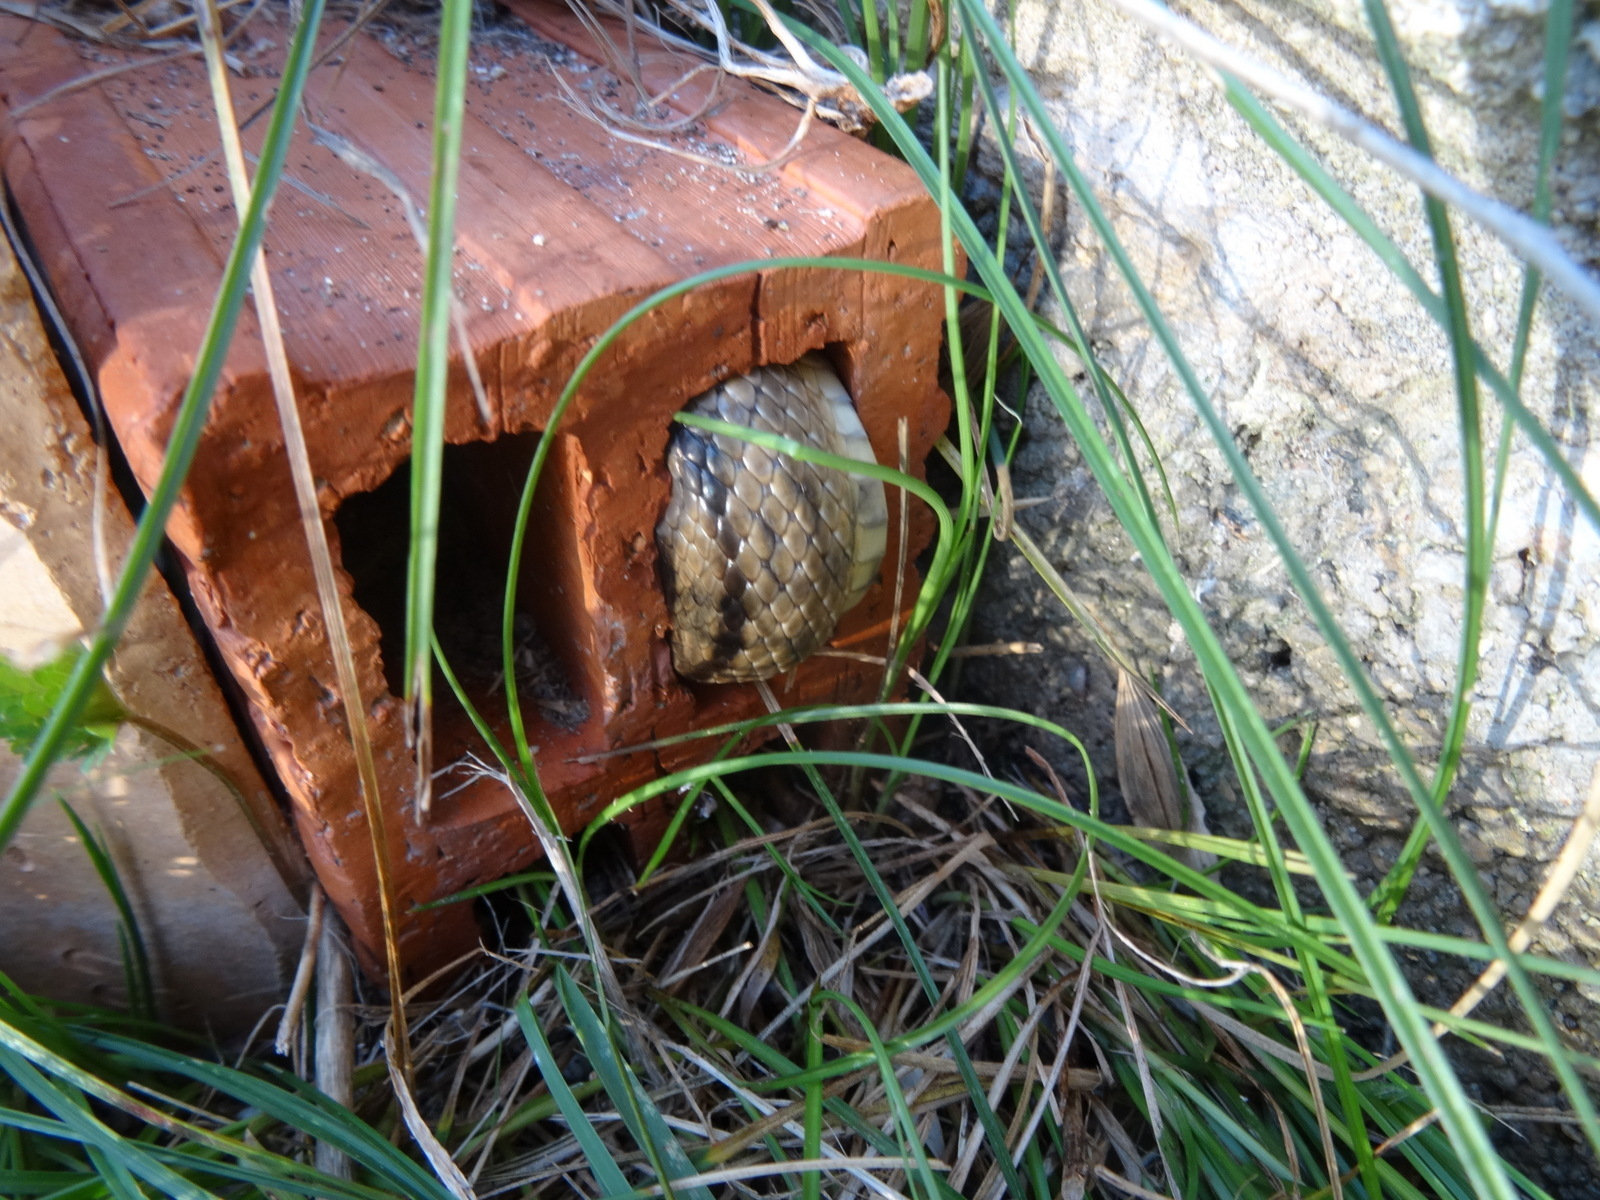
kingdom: Animalia
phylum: Chordata
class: Squamata
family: Colubridae
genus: Zamenis
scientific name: Zamenis scalaris
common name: Ladder snakes
